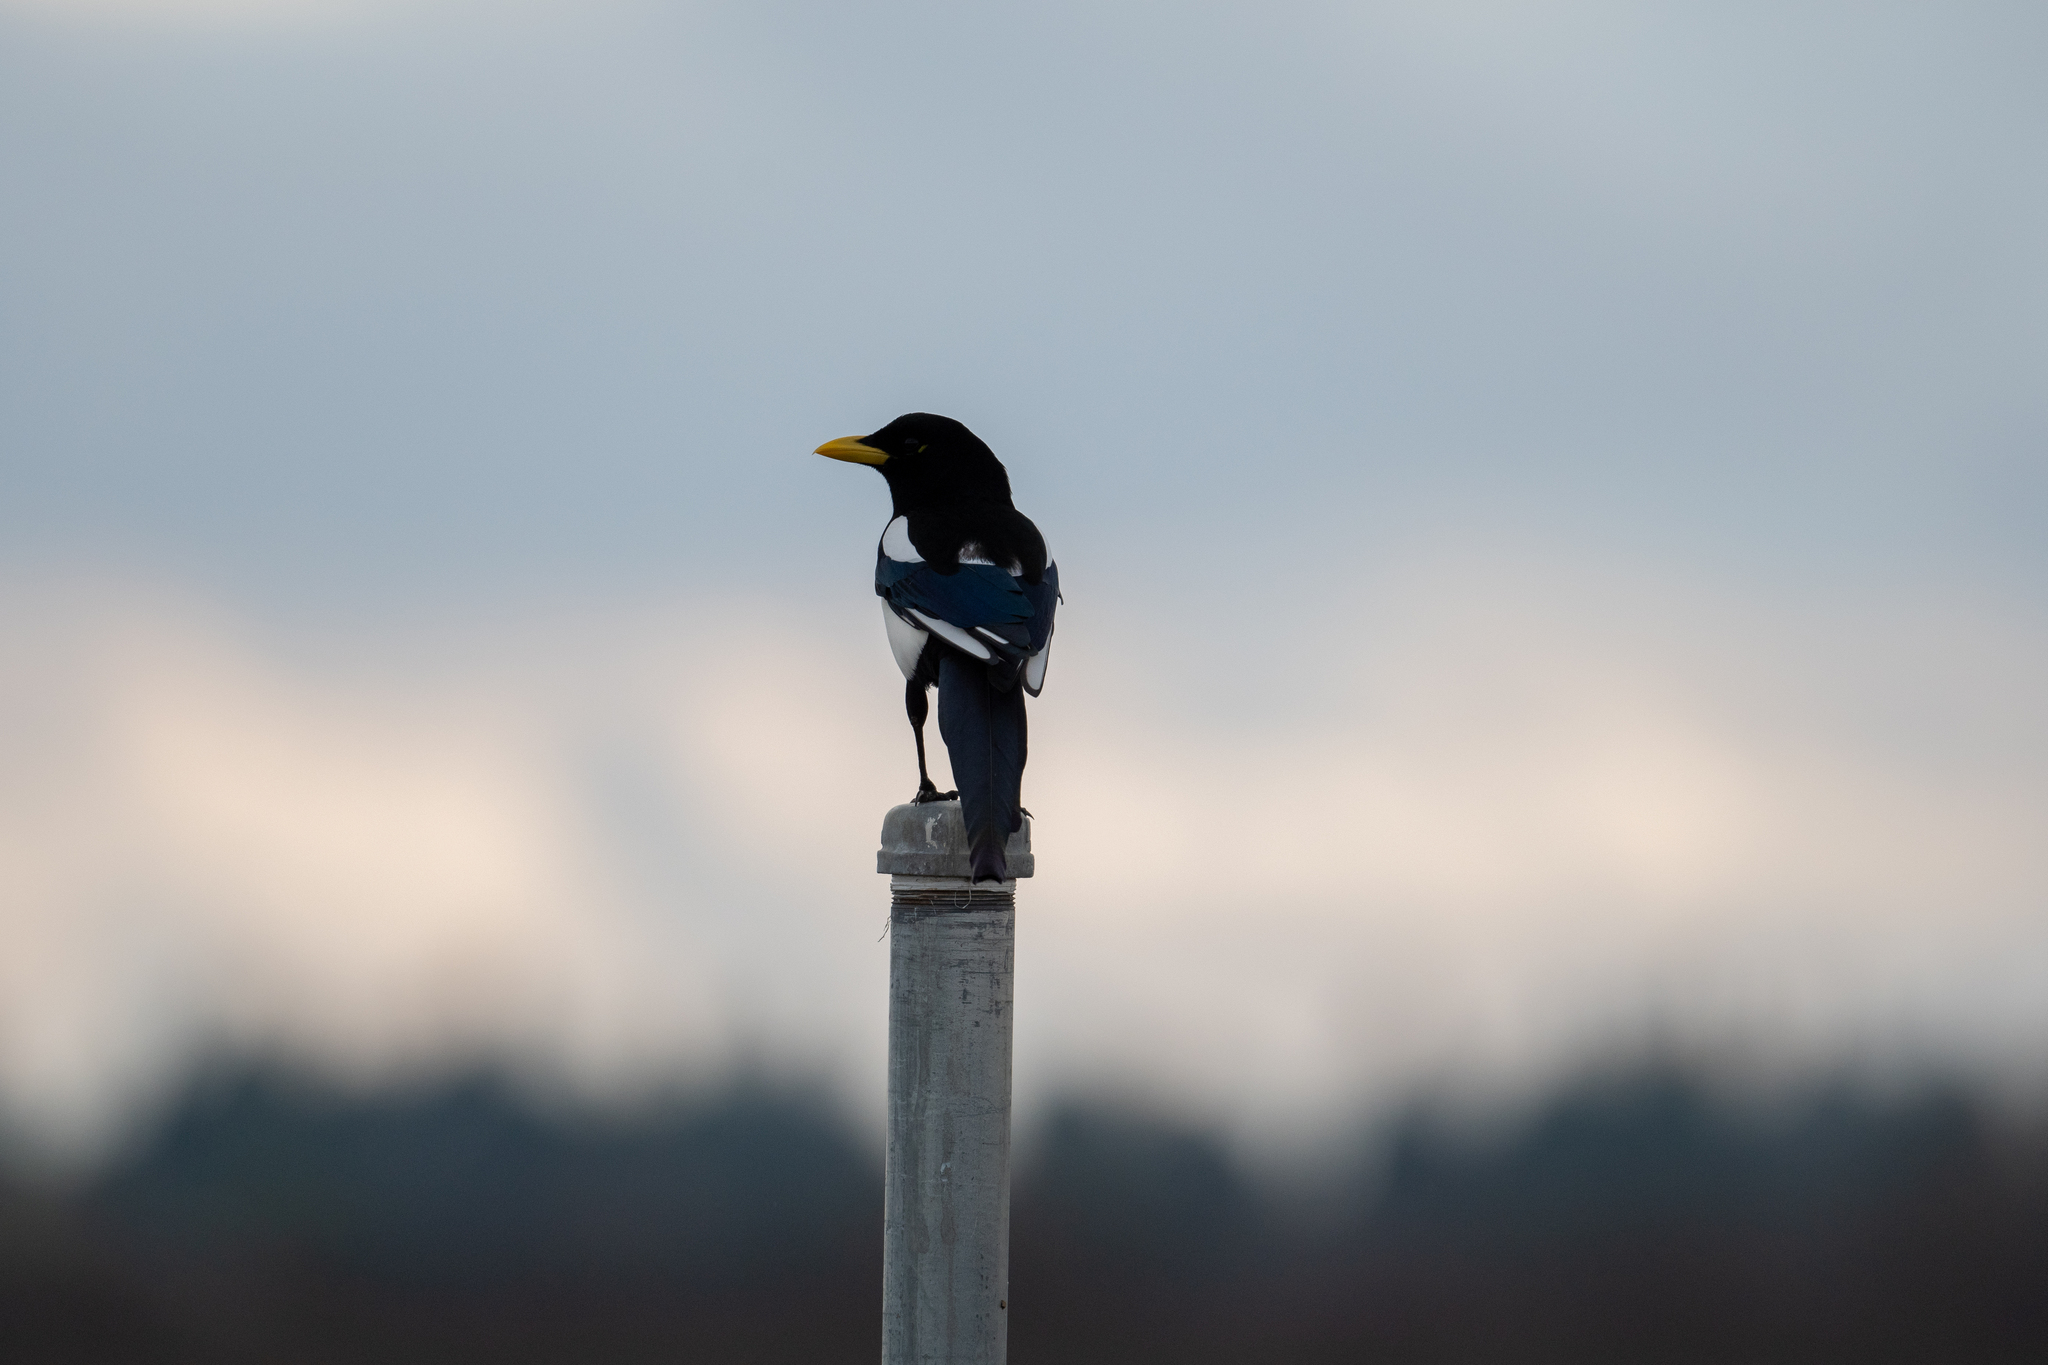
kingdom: Animalia
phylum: Chordata
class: Aves
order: Passeriformes
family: Corvidae
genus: Pica
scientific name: Pica nuttalli
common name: Yellow-billed magpie
